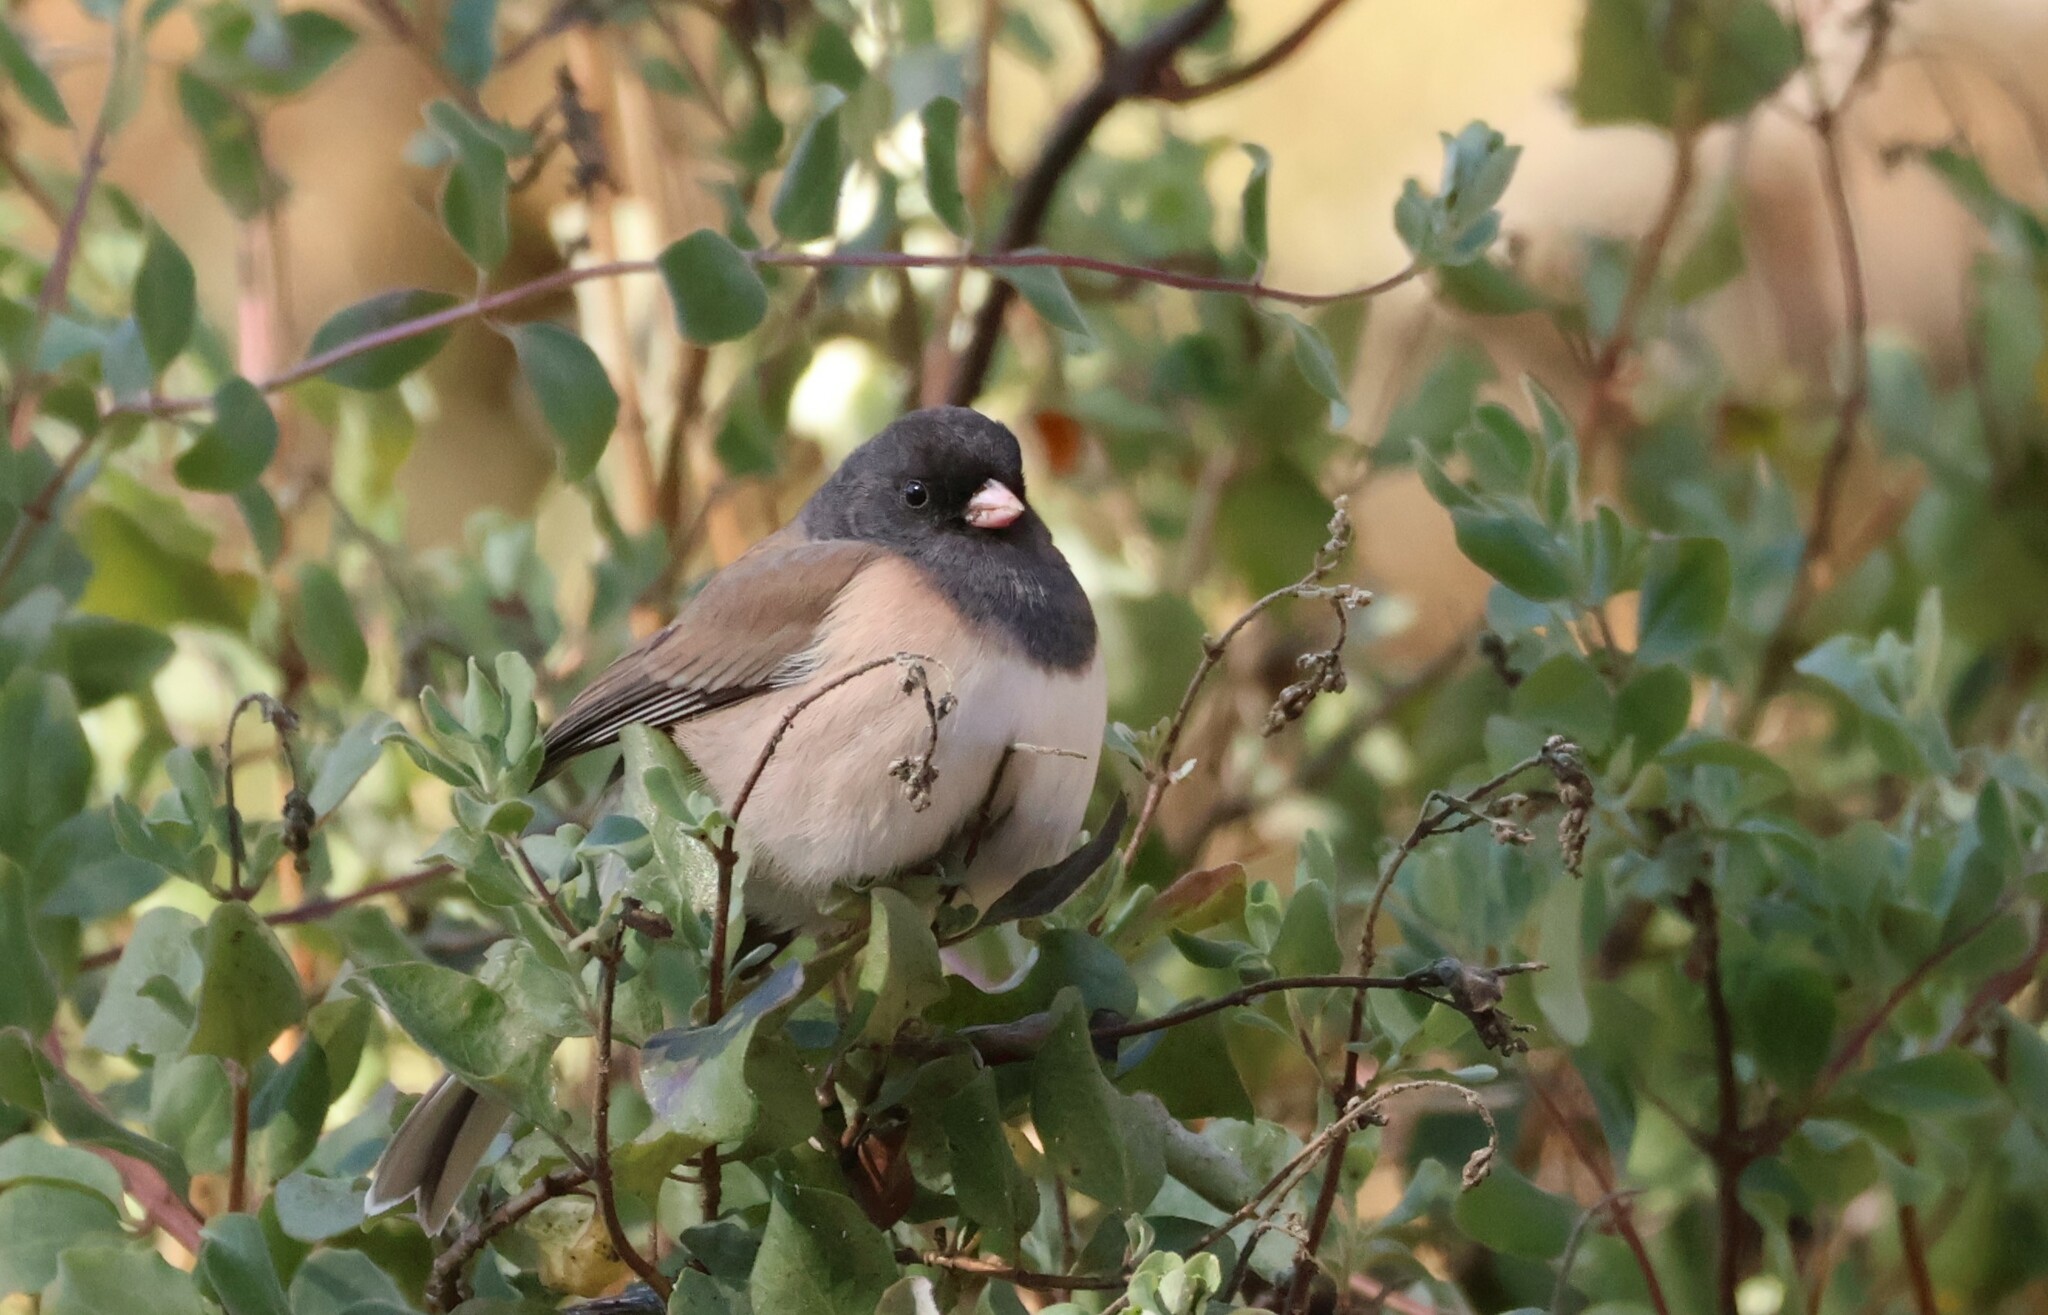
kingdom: Animalia
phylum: Chordata
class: Aves
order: Passeriformes
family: Passerellidae
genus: Junco
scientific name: Junco hyemalis
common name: Dark-eyed junco
